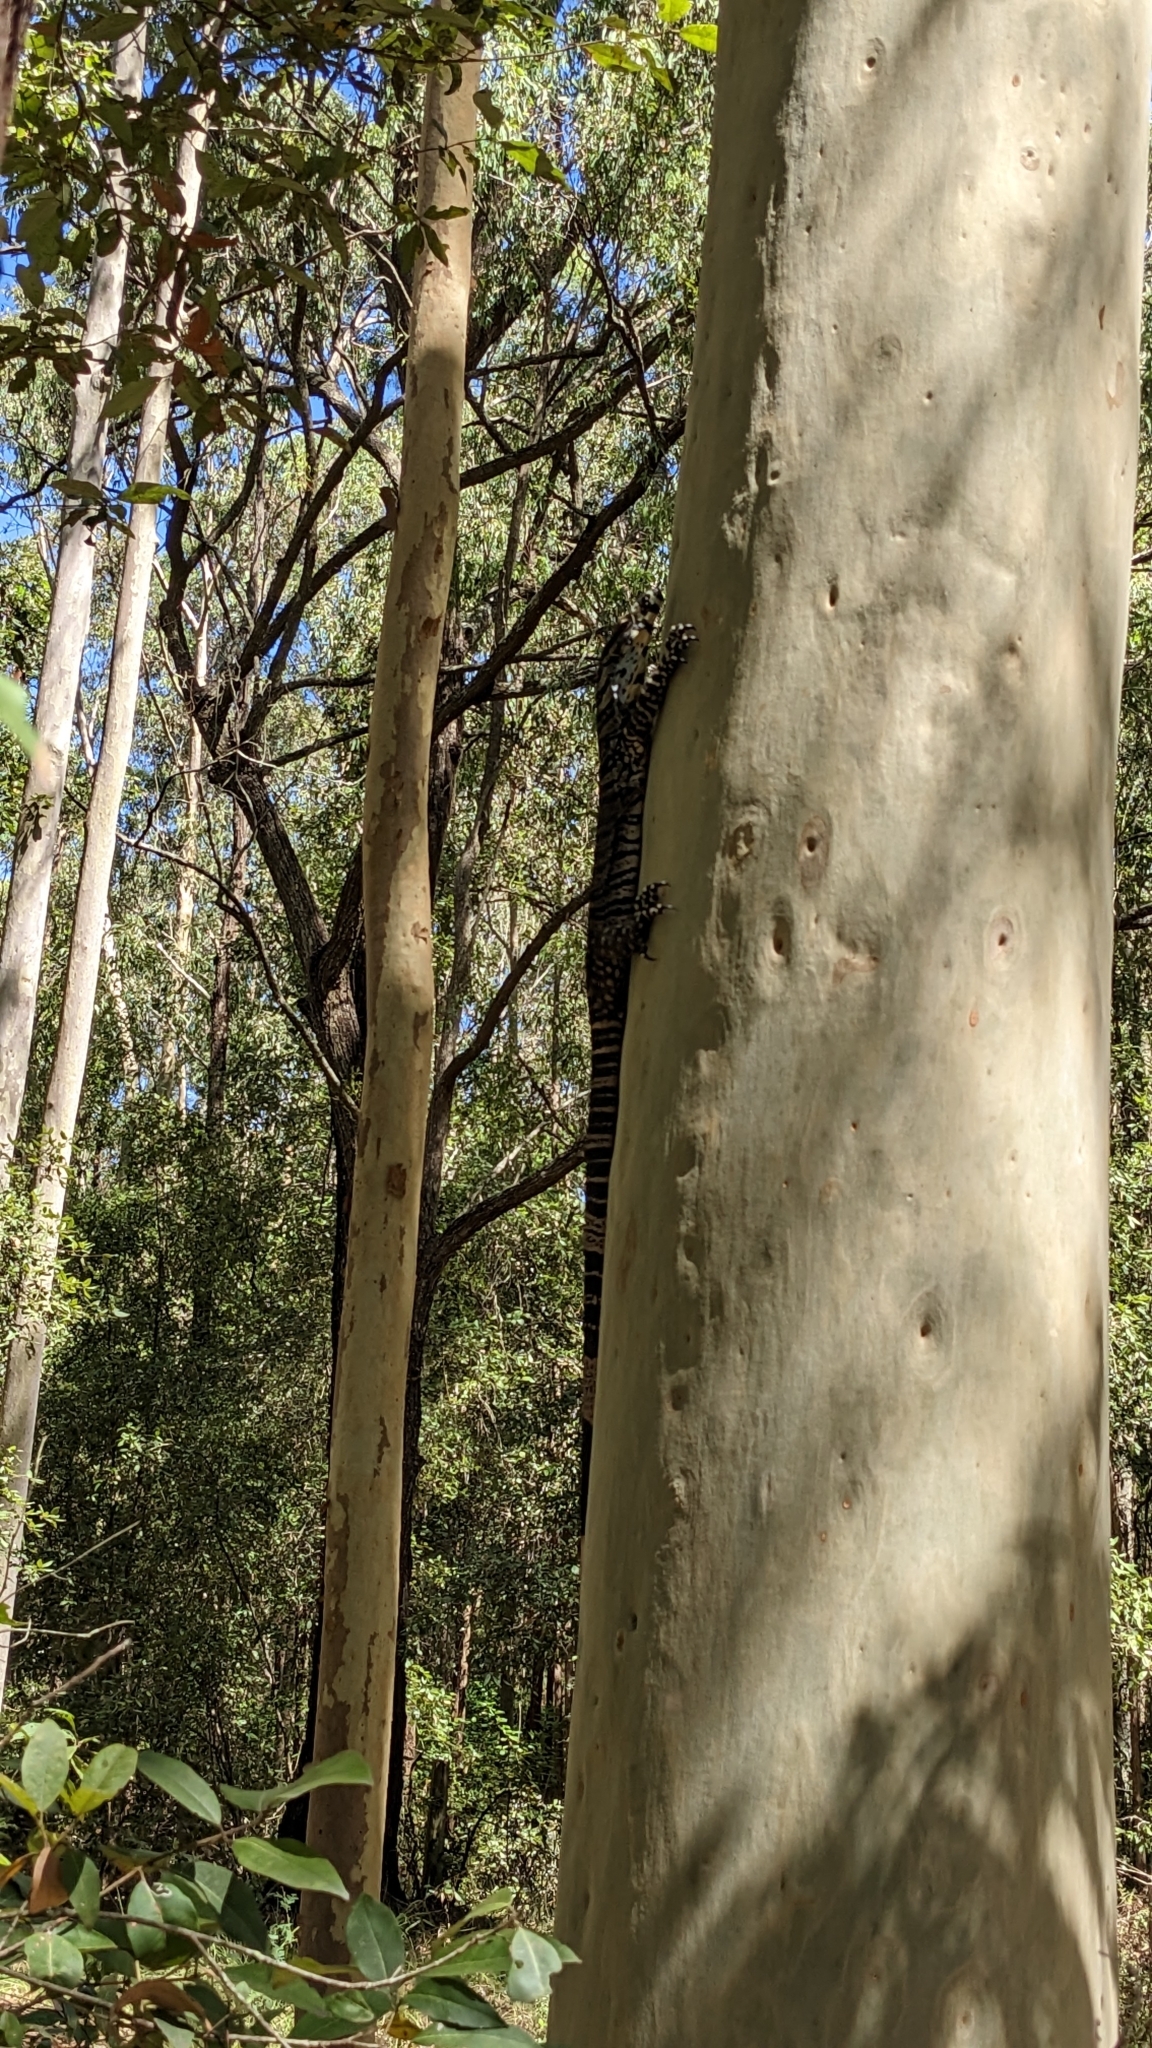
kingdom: Animalia
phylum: Chordata
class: Squamata
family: Varanidae
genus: Varanus
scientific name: Varanus varius
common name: Lace monitor
